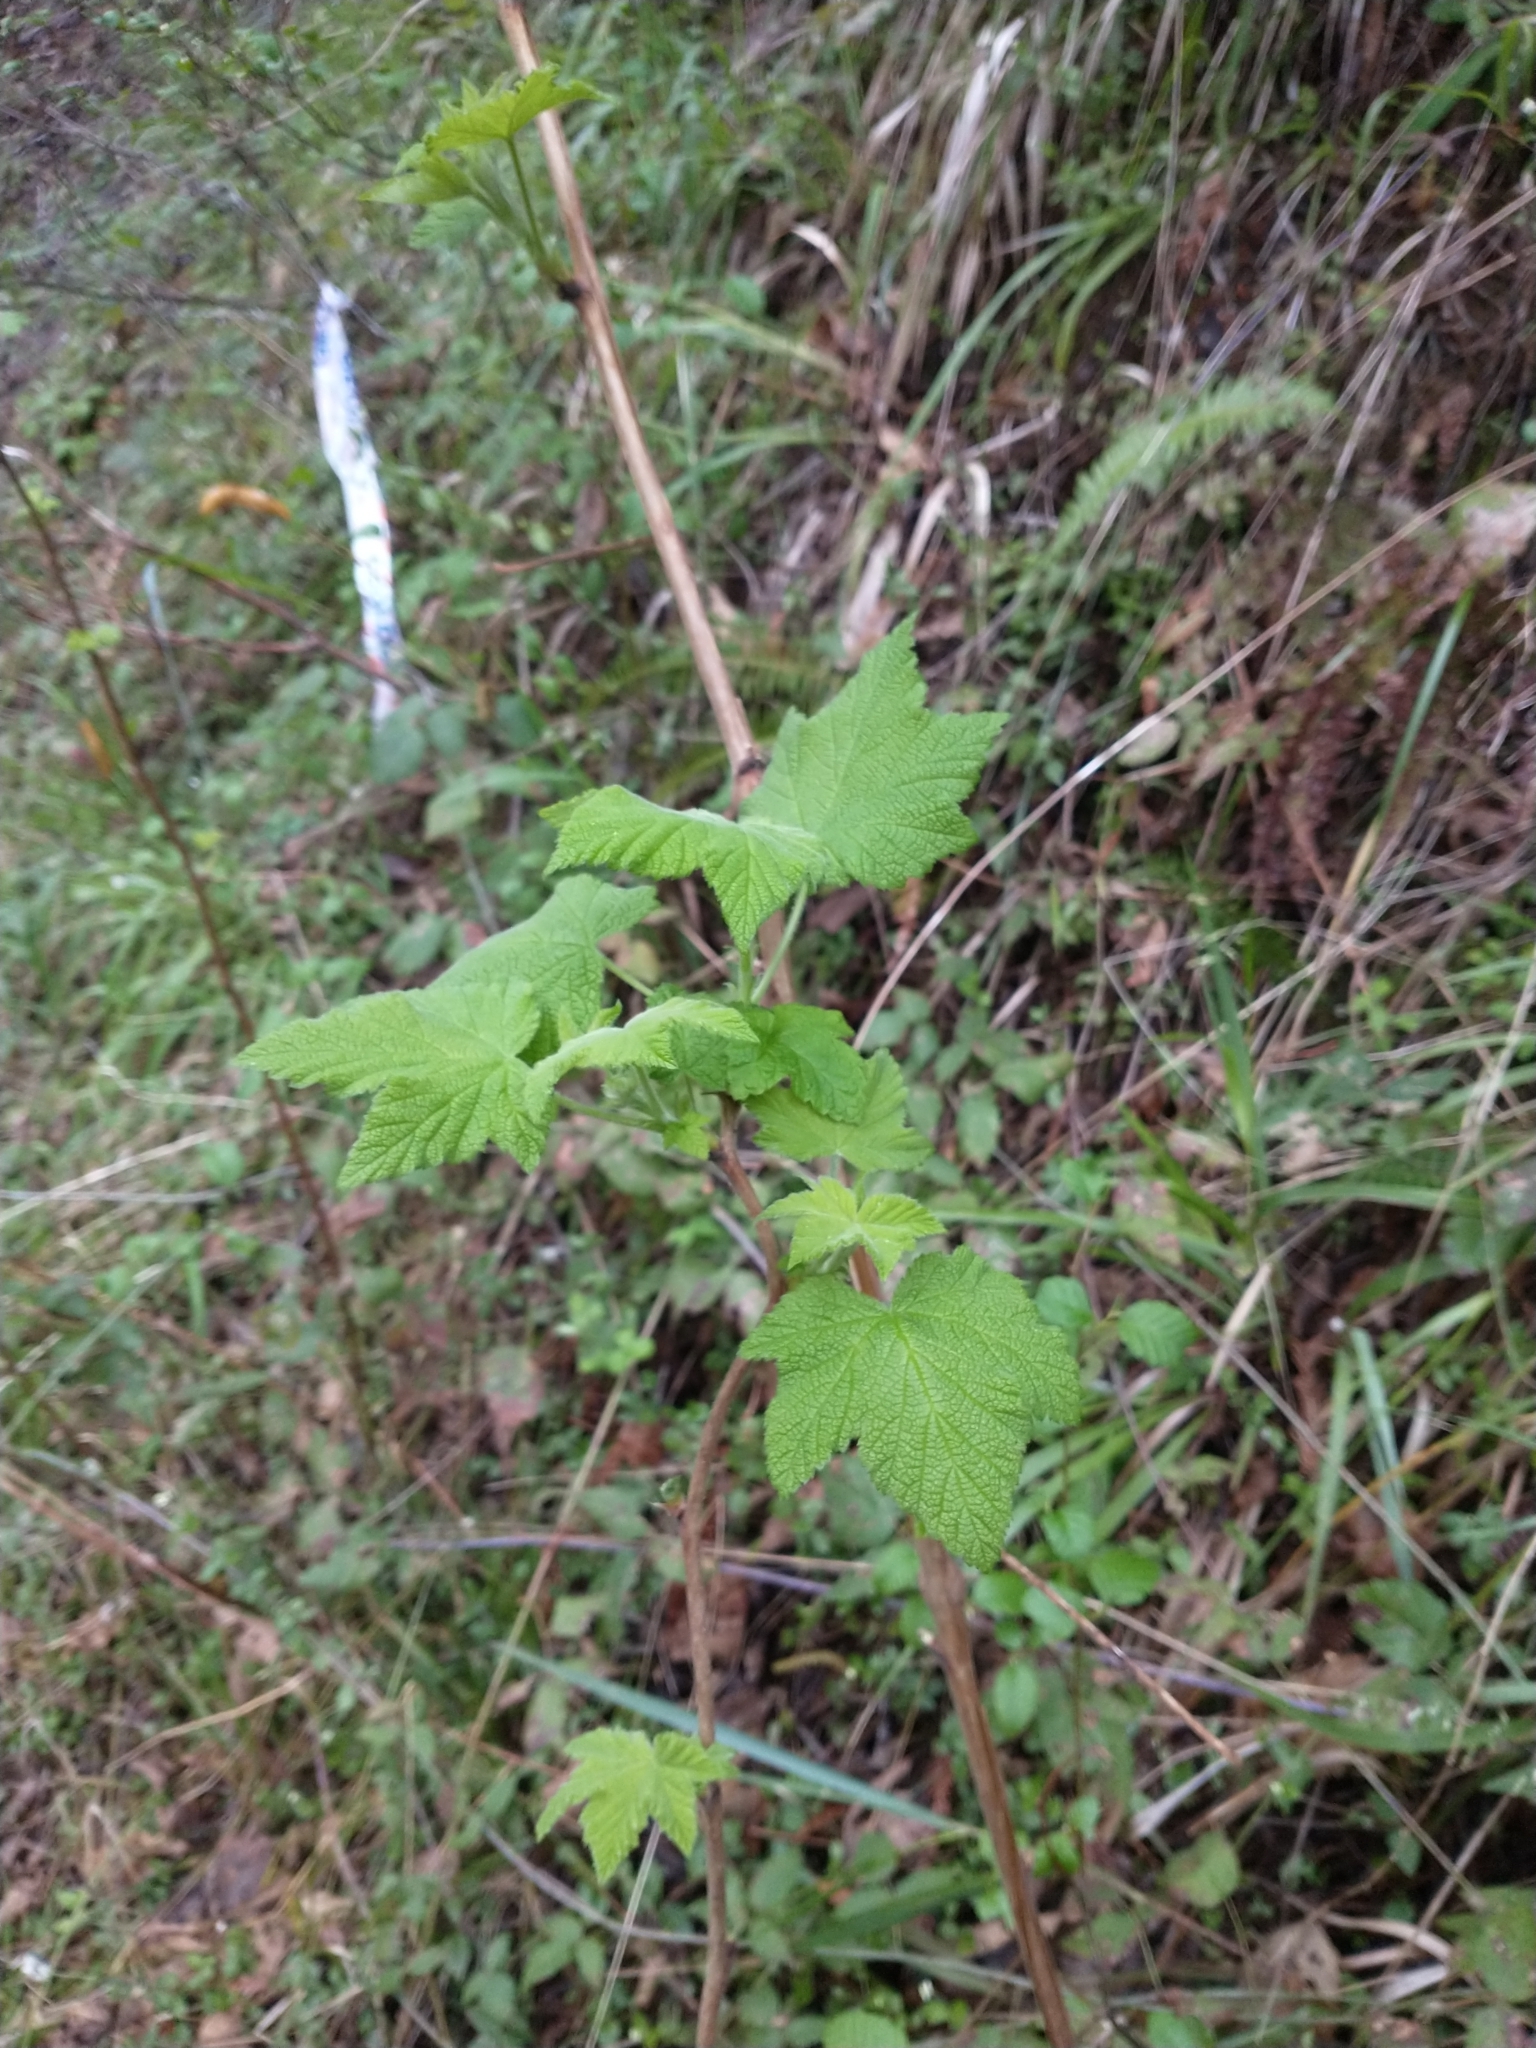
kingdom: Plantae
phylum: Tracheophyta
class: Magnoliopsida
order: Rosales
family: Rosaceae
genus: Rubus
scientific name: Rubus parviflorus
